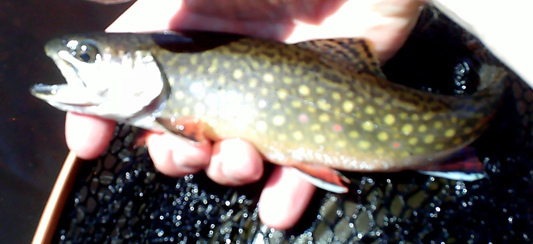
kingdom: Animalia
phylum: Chordata
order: Salmoniformes
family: Salmonidae
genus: Salvelinus
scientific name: Salvelinus fontinalis
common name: Brook trout
